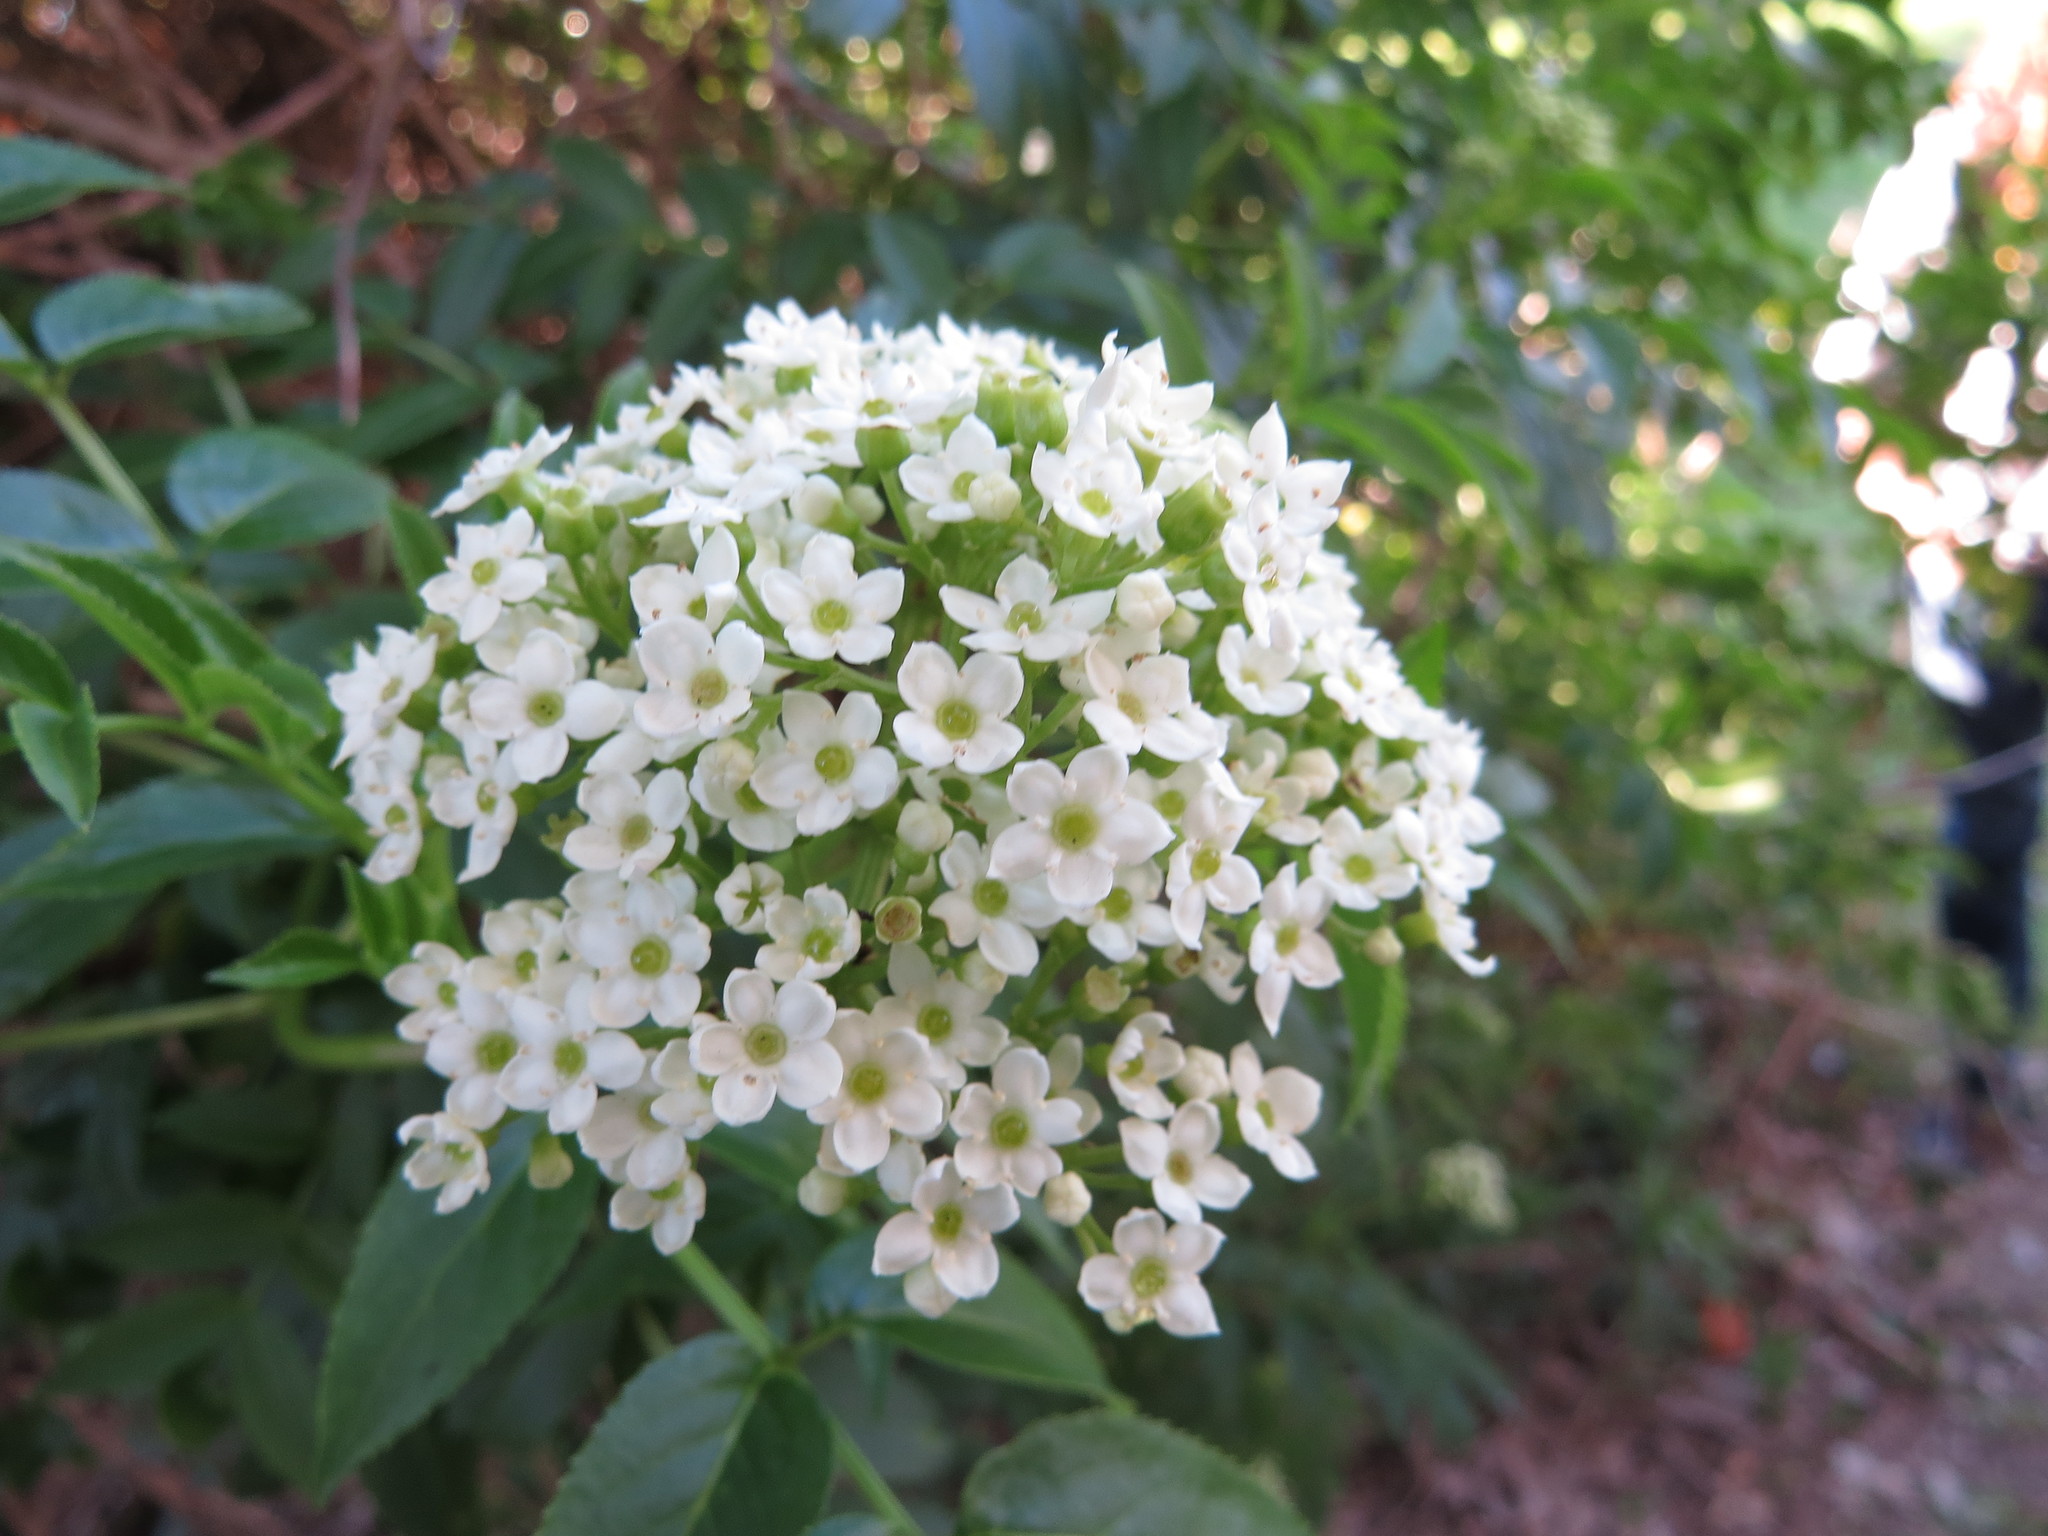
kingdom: Plantae
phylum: Tracheophyta
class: Magnoliopsida
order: Dipsacales
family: Viburnaceae
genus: Sambucus
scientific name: Sambucus australis
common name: Southern elder
